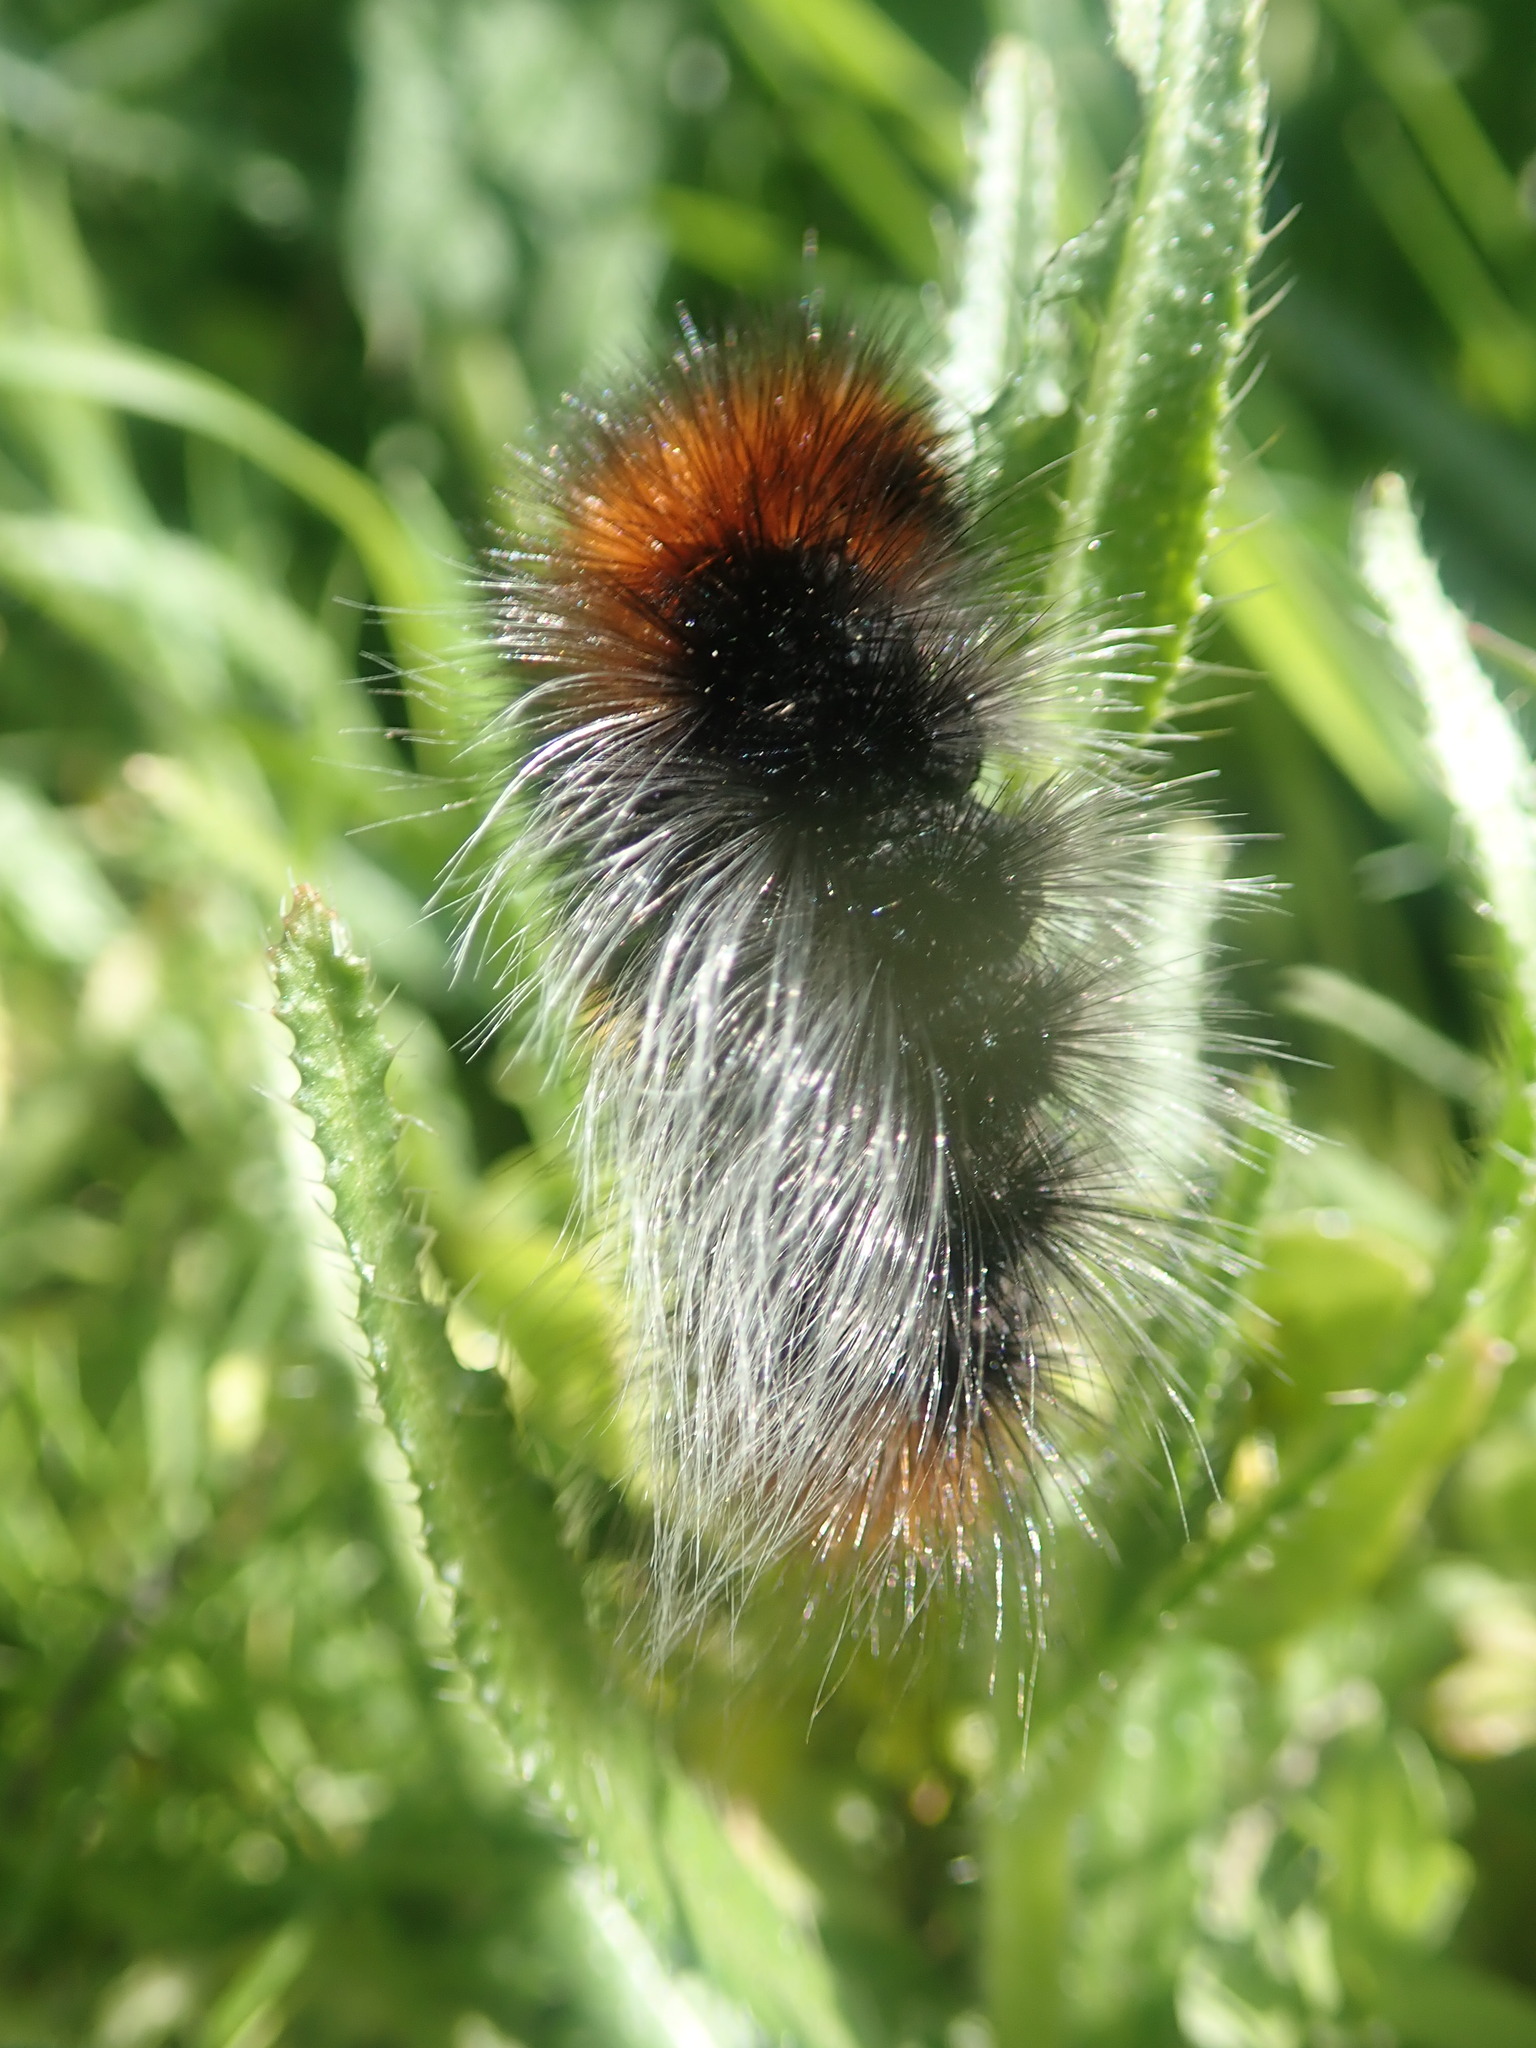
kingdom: Animalia
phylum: Arthropoda
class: Insecta
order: Lepidoptera
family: Erebidae
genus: Arctia
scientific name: Arctia tigrina
